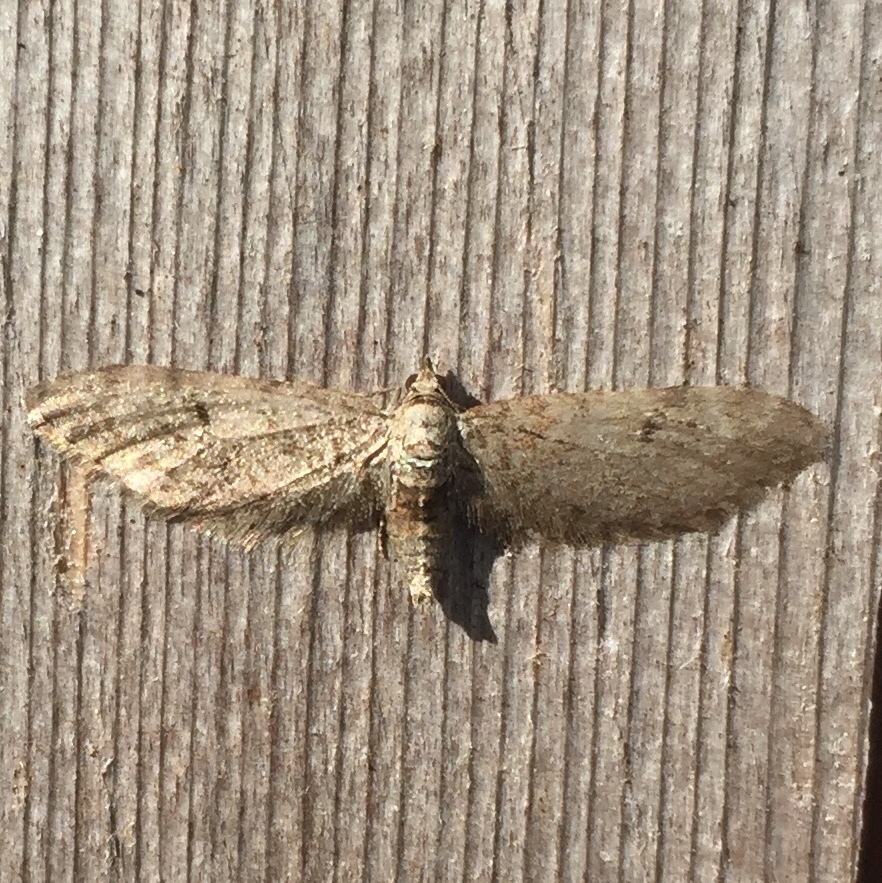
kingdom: Animalia
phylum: Arthropoda
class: Insecta
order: Lepidoptera
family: Geometridae
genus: Eupithecia
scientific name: Eupithecia matheri
